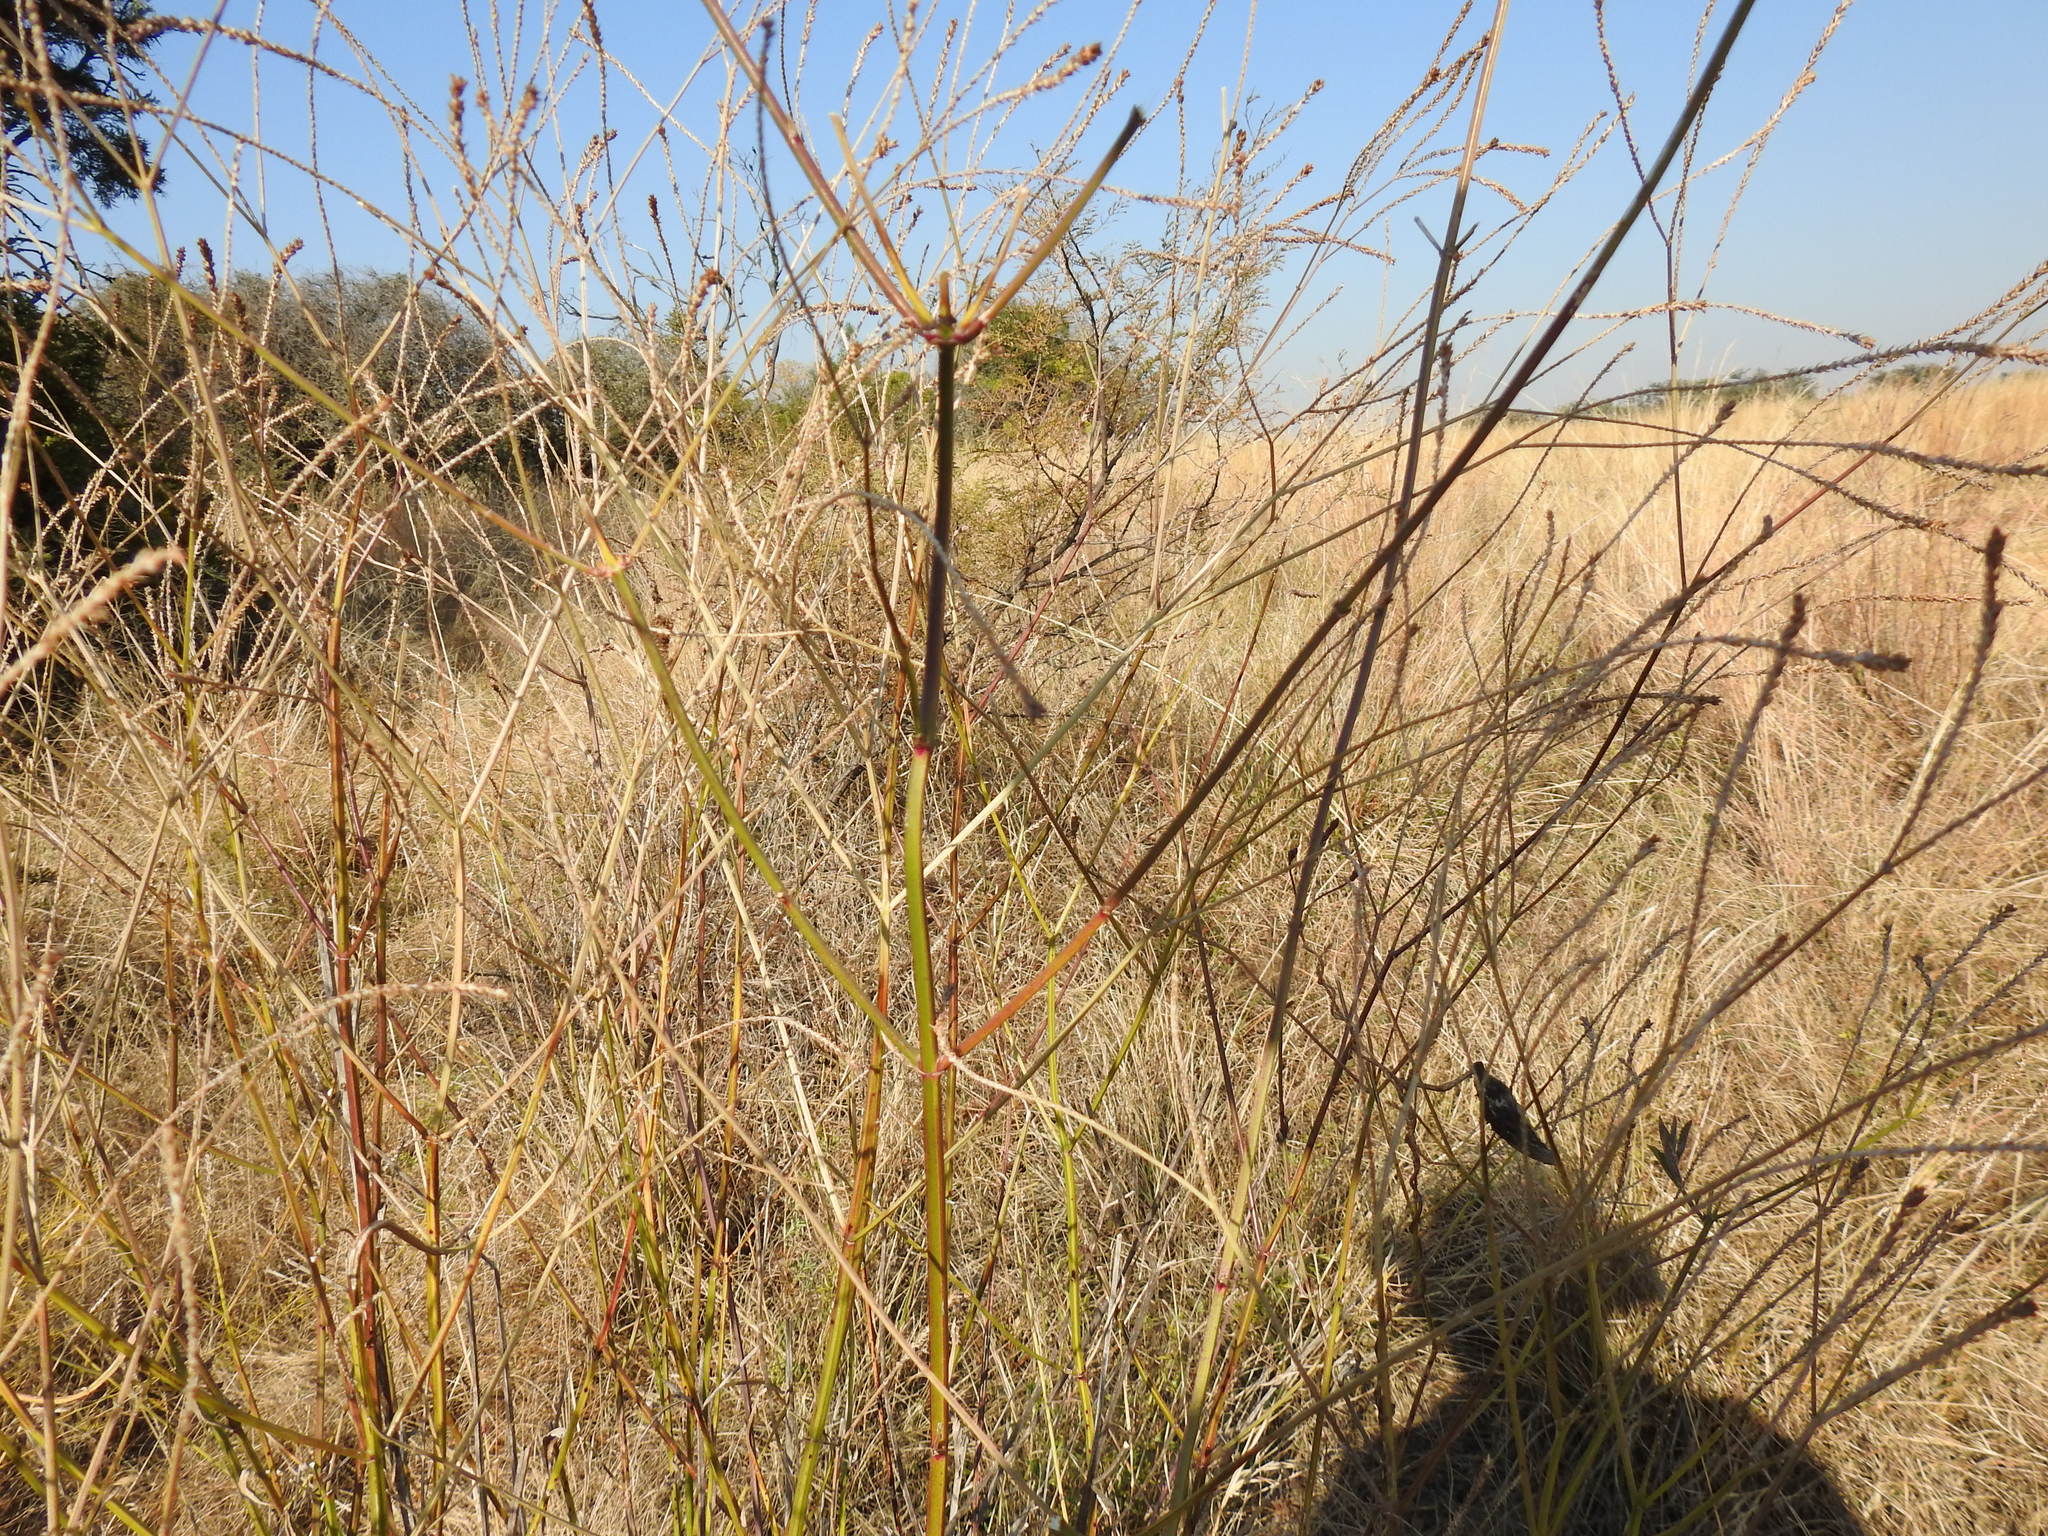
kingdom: Plantae
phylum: Tracheophyta
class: Magnoliopsida
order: Lamiales
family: Verbenaceae
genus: Verbena
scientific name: Verbena brasiliensis
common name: Brazilian vervain
